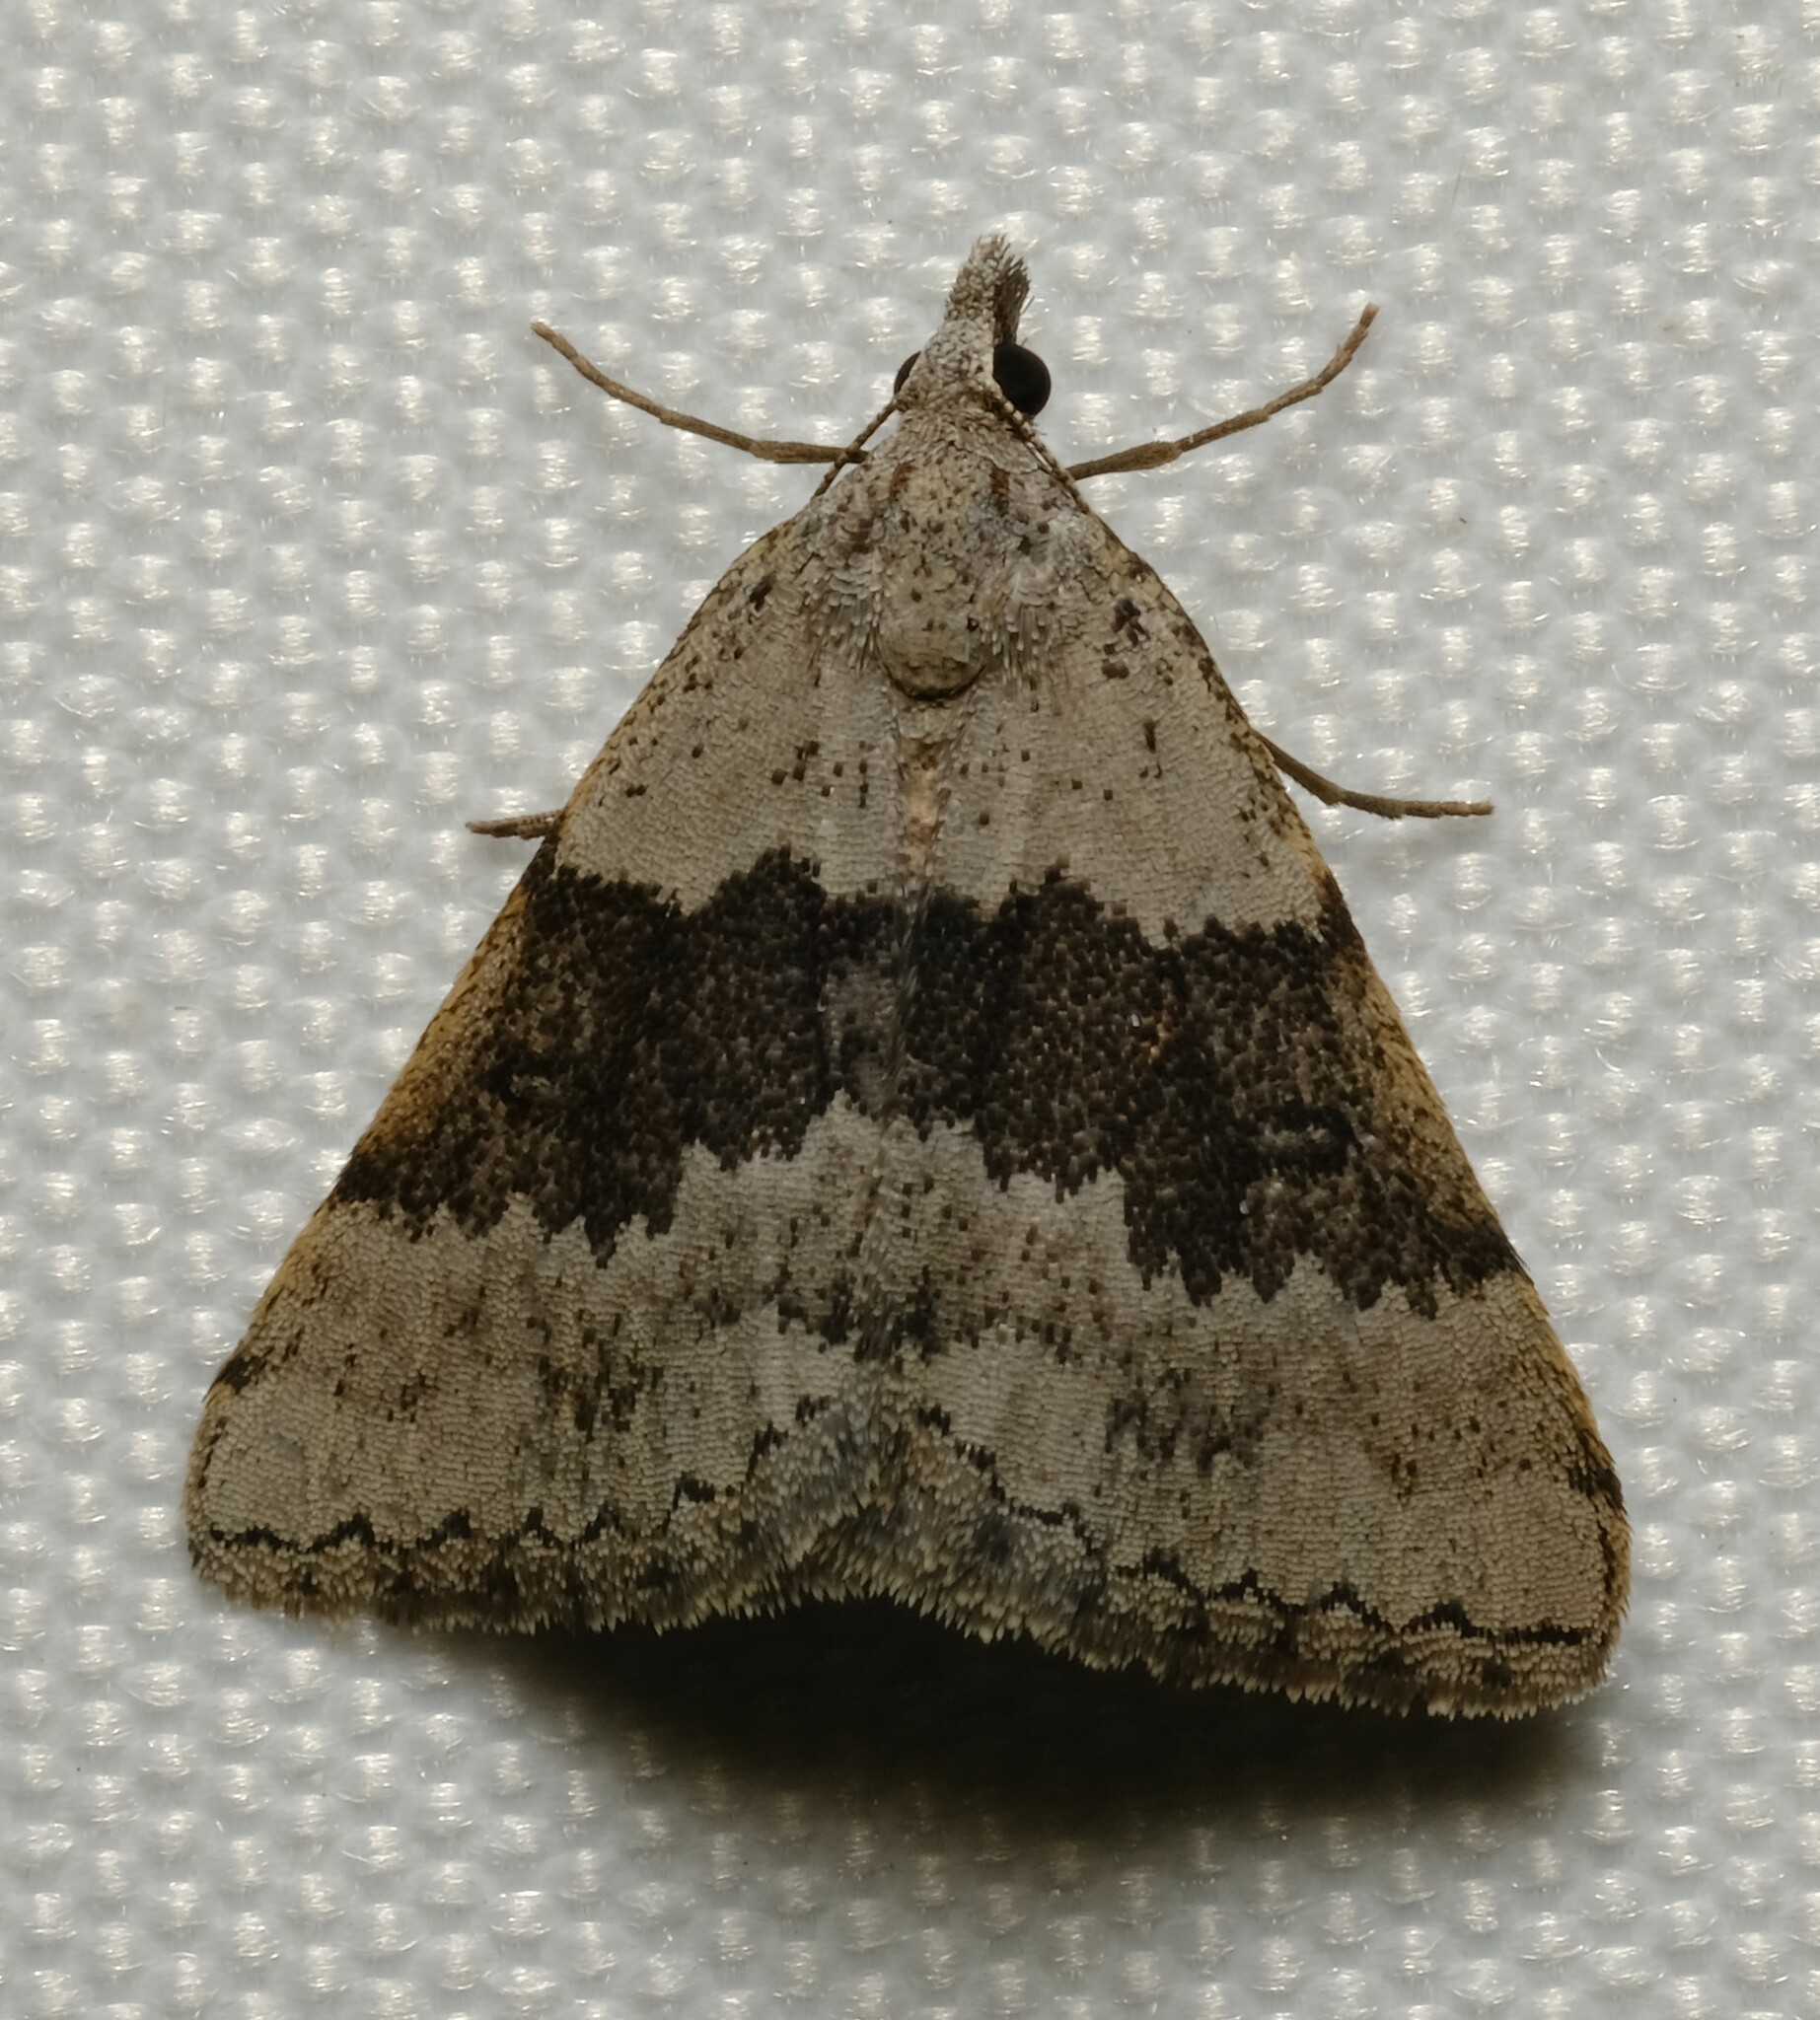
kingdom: Animalia
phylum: Arthropoda
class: Insecta
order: Lepidoptera
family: Geometridae
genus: Dichromodes
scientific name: Dichromodes indicataria
